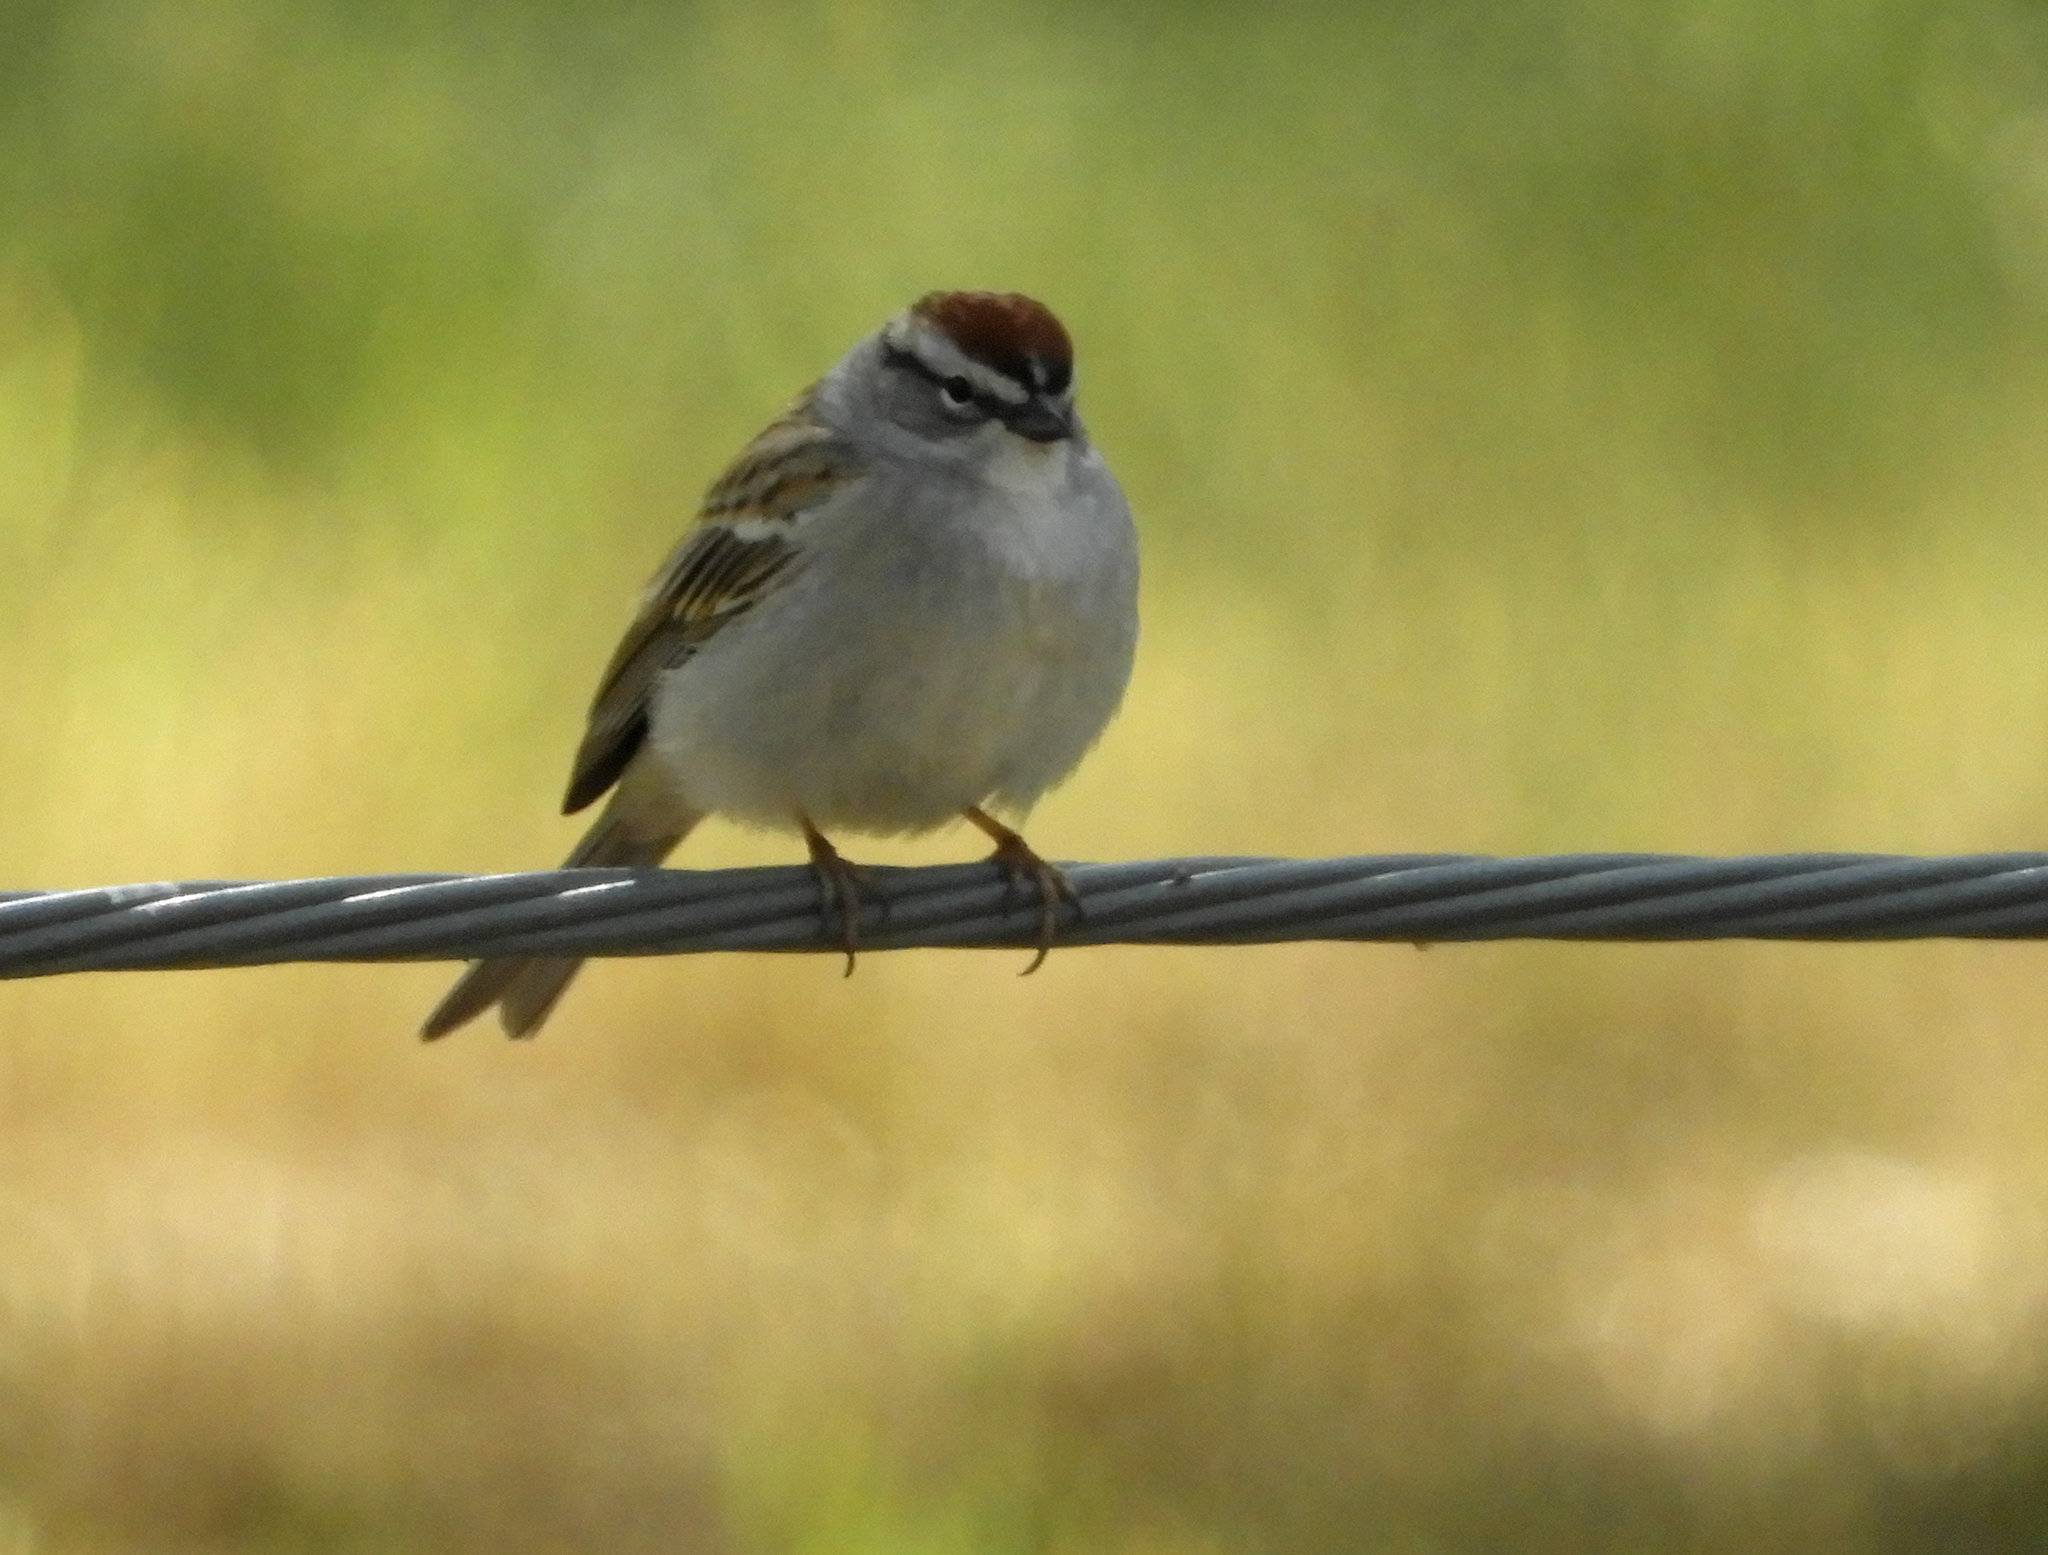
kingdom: Animalia
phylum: Chordata
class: Aves
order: Passeriformes
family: Passerellidae
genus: Spizella
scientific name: Spizella passerina
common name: Chipping sparrow
